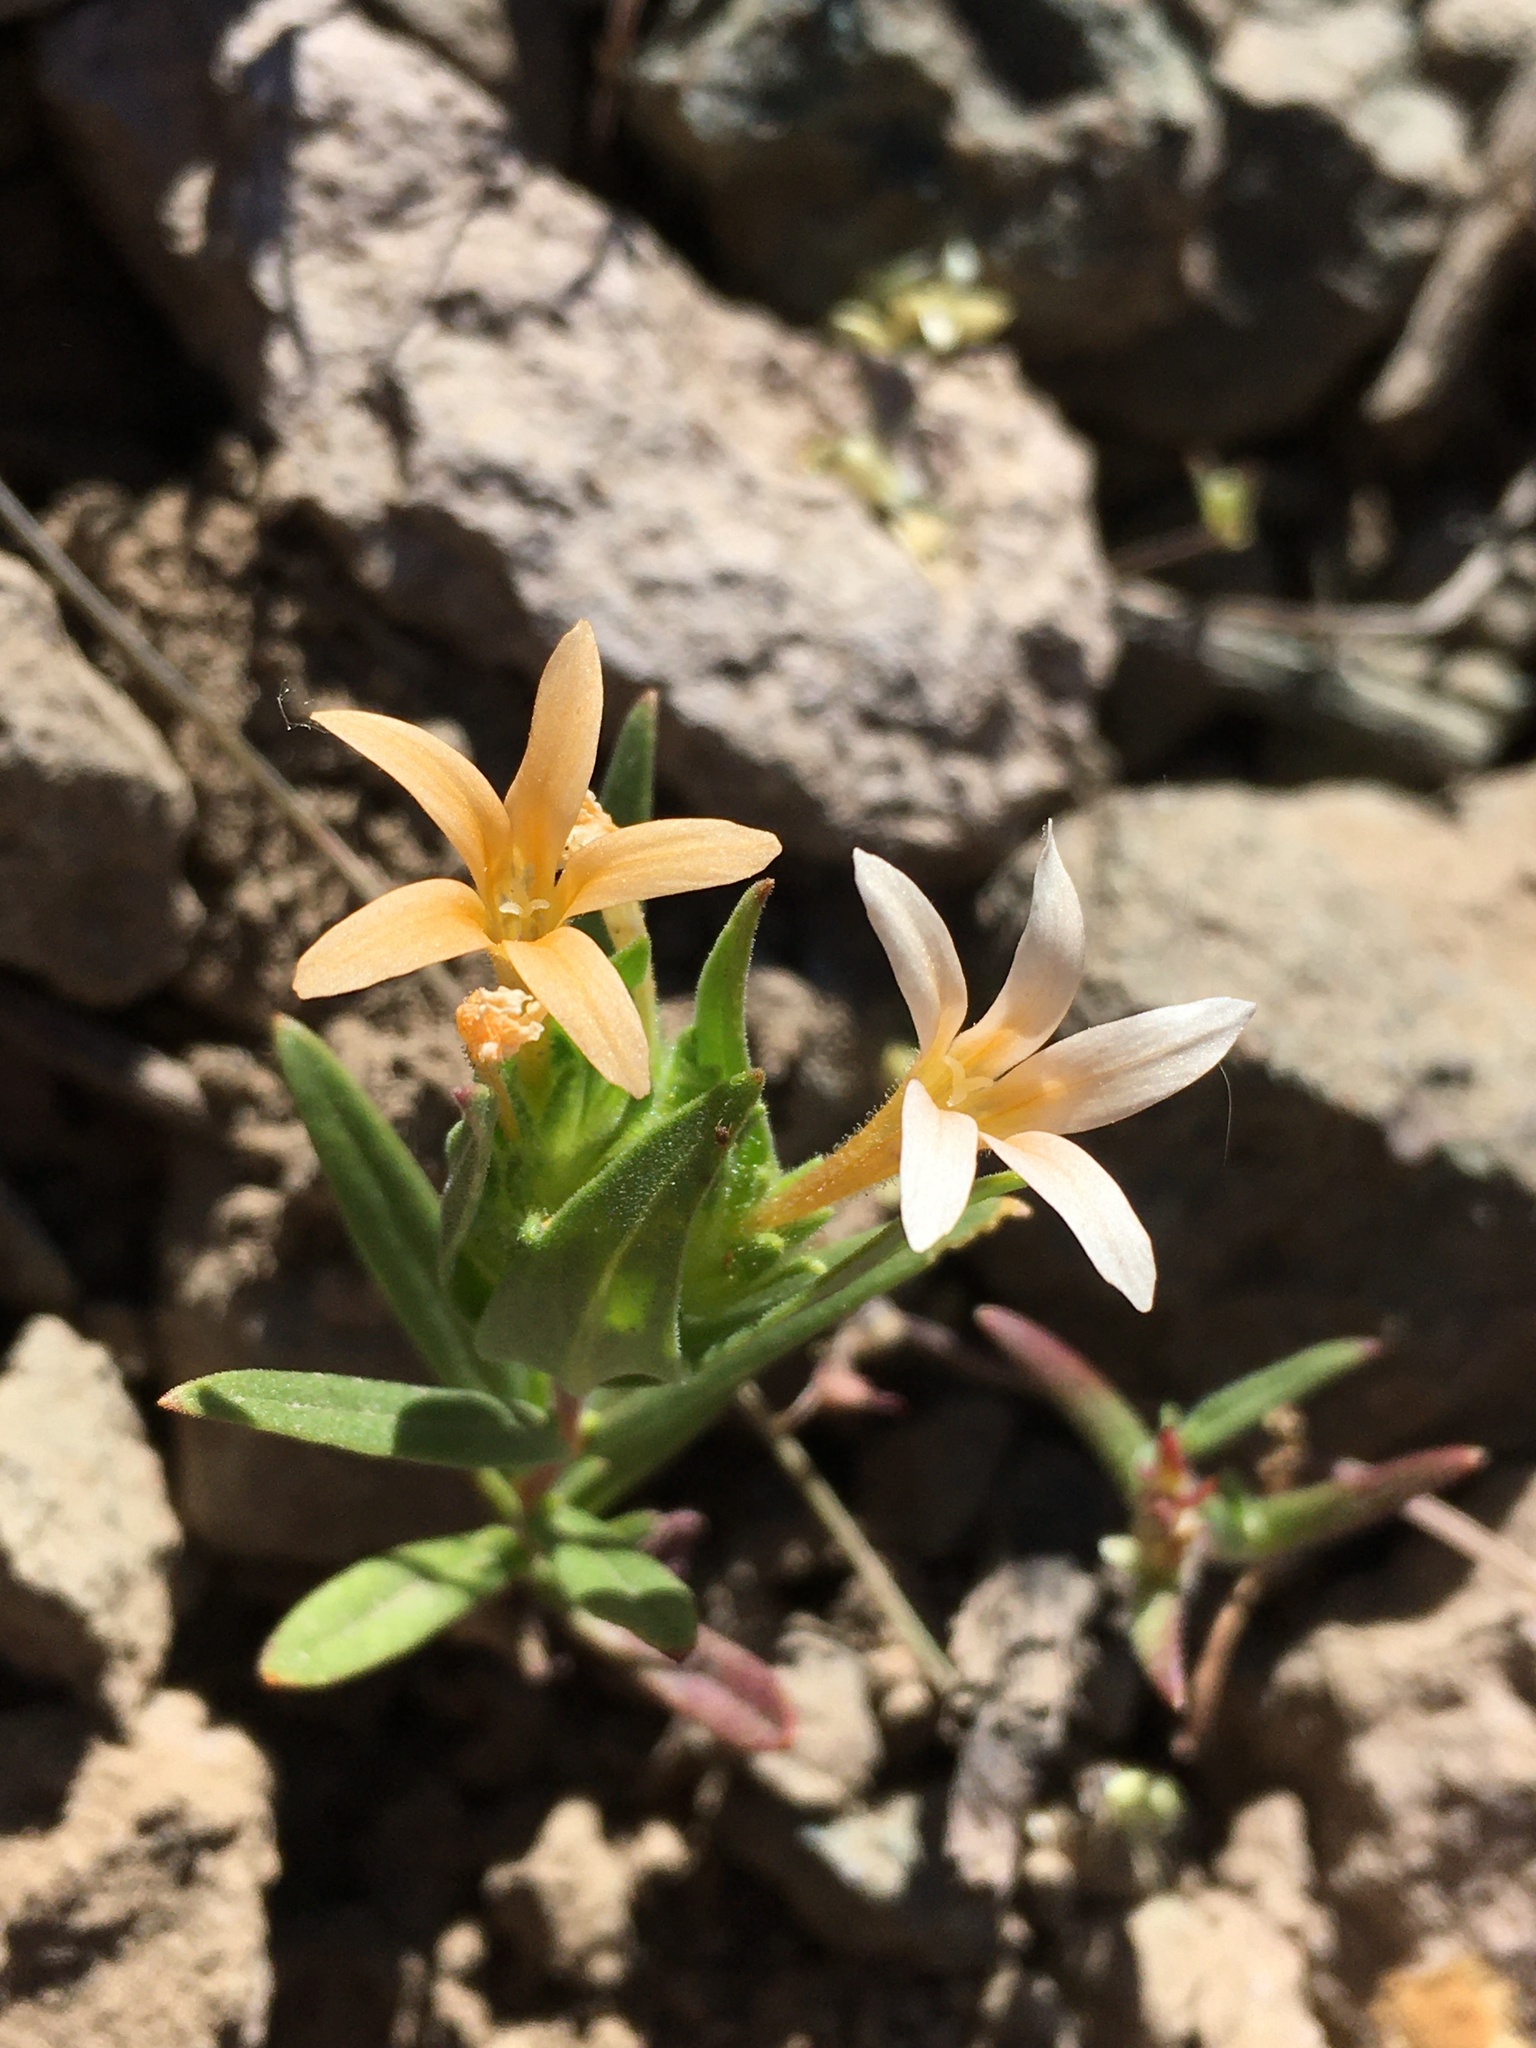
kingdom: Plantae
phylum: Tracheophyta
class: Magnoliopsida
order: Ericales
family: Polemoniaceae
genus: Collomia
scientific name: Collomia biflora
